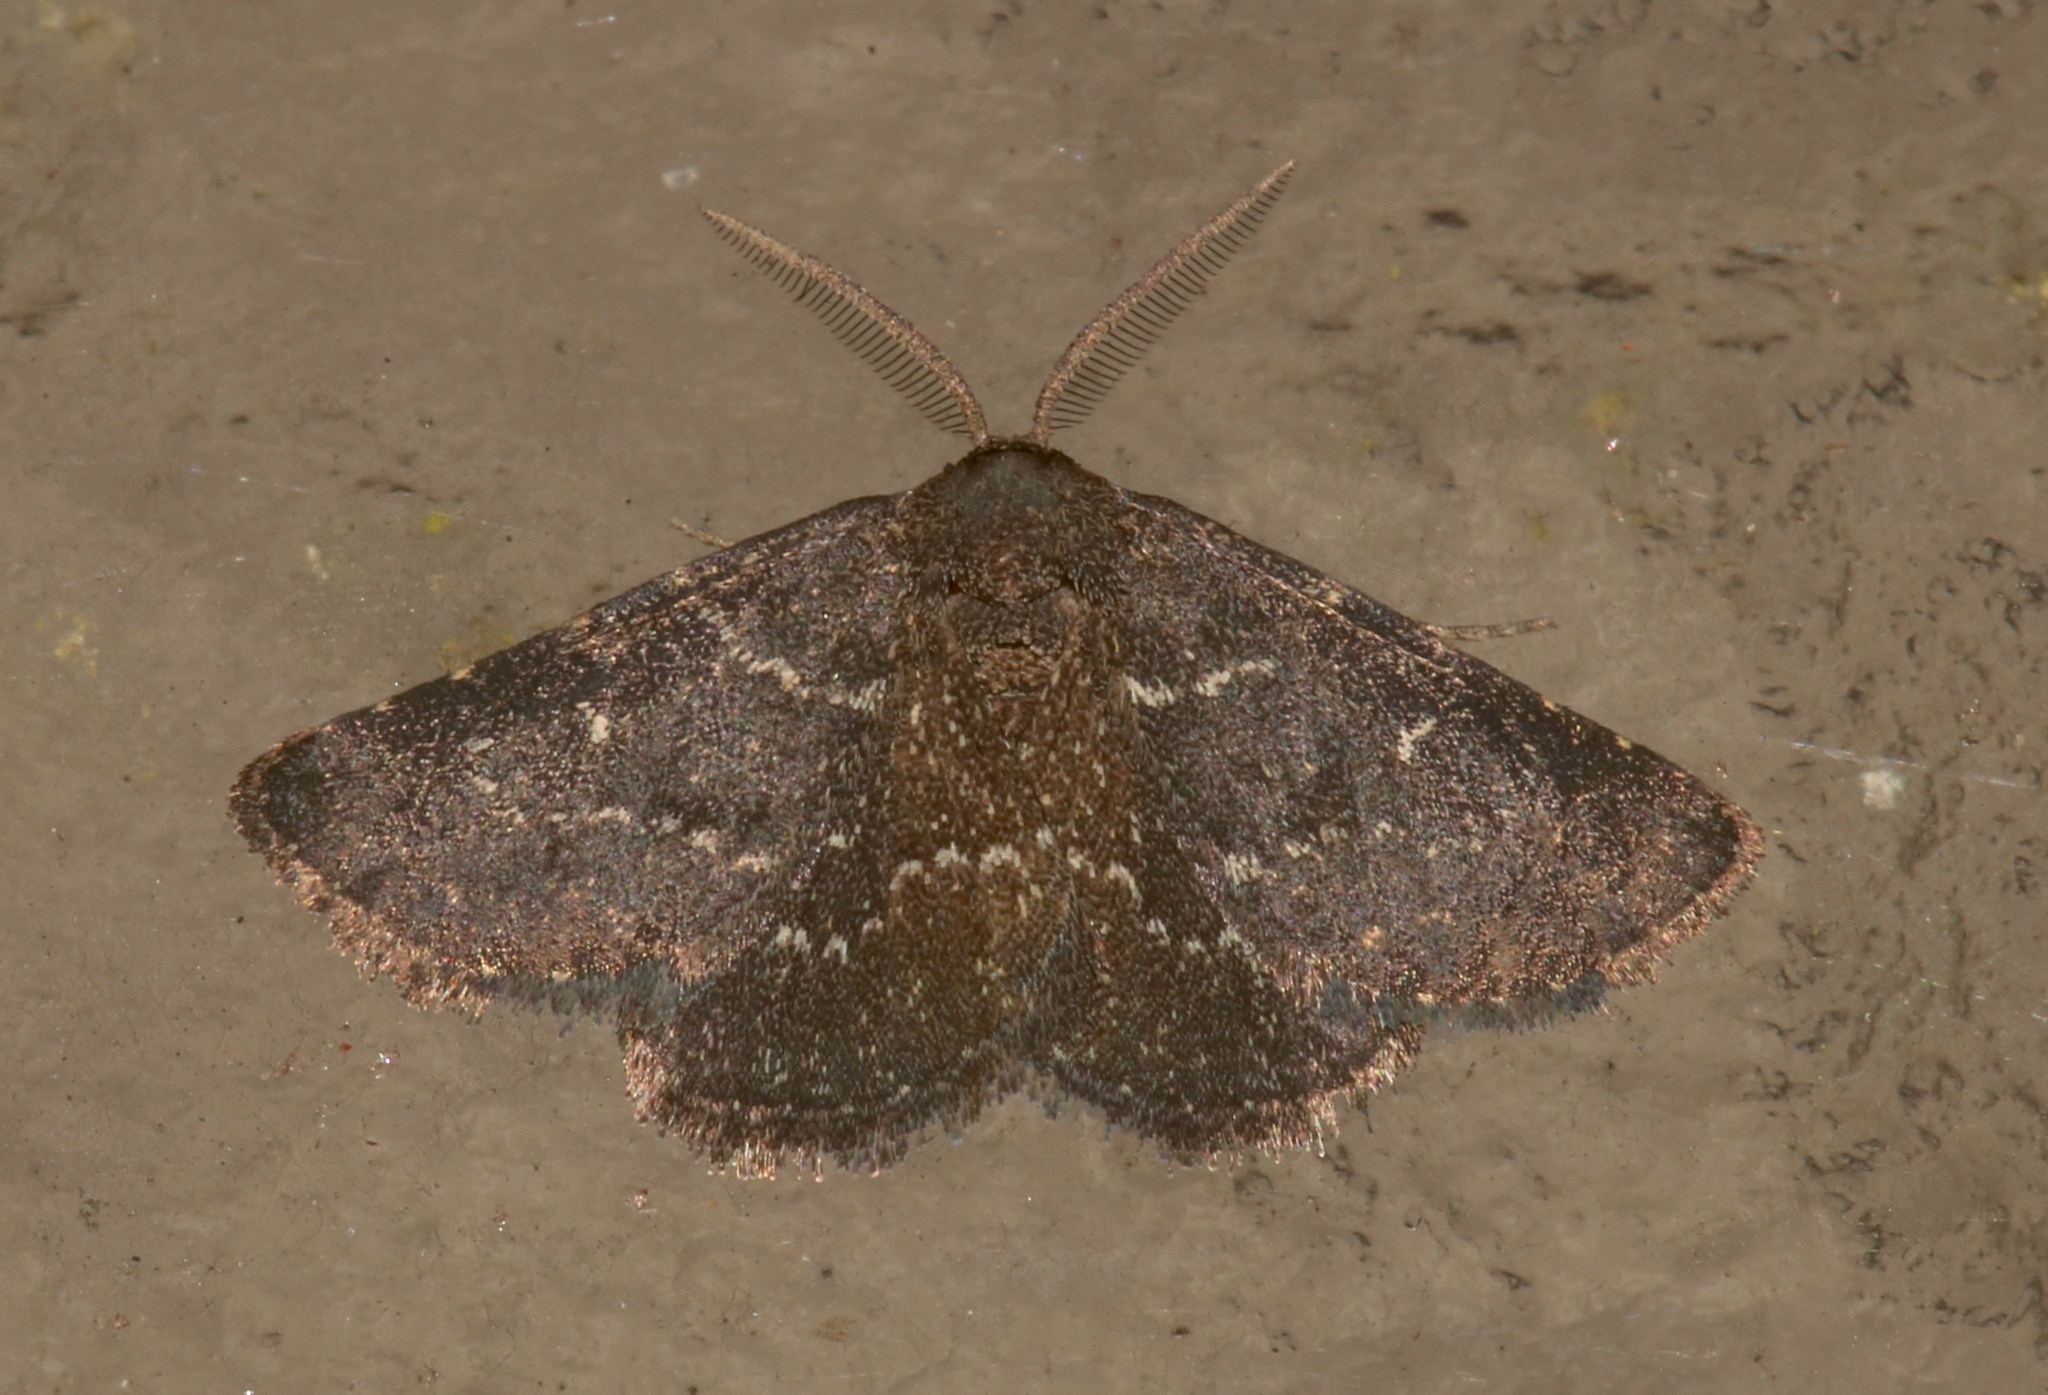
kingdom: Animalia
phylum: Arthropoda
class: Insecta
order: Lepidoptera
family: Erebidae
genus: Prosoparia
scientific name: Prosoparia floridana
